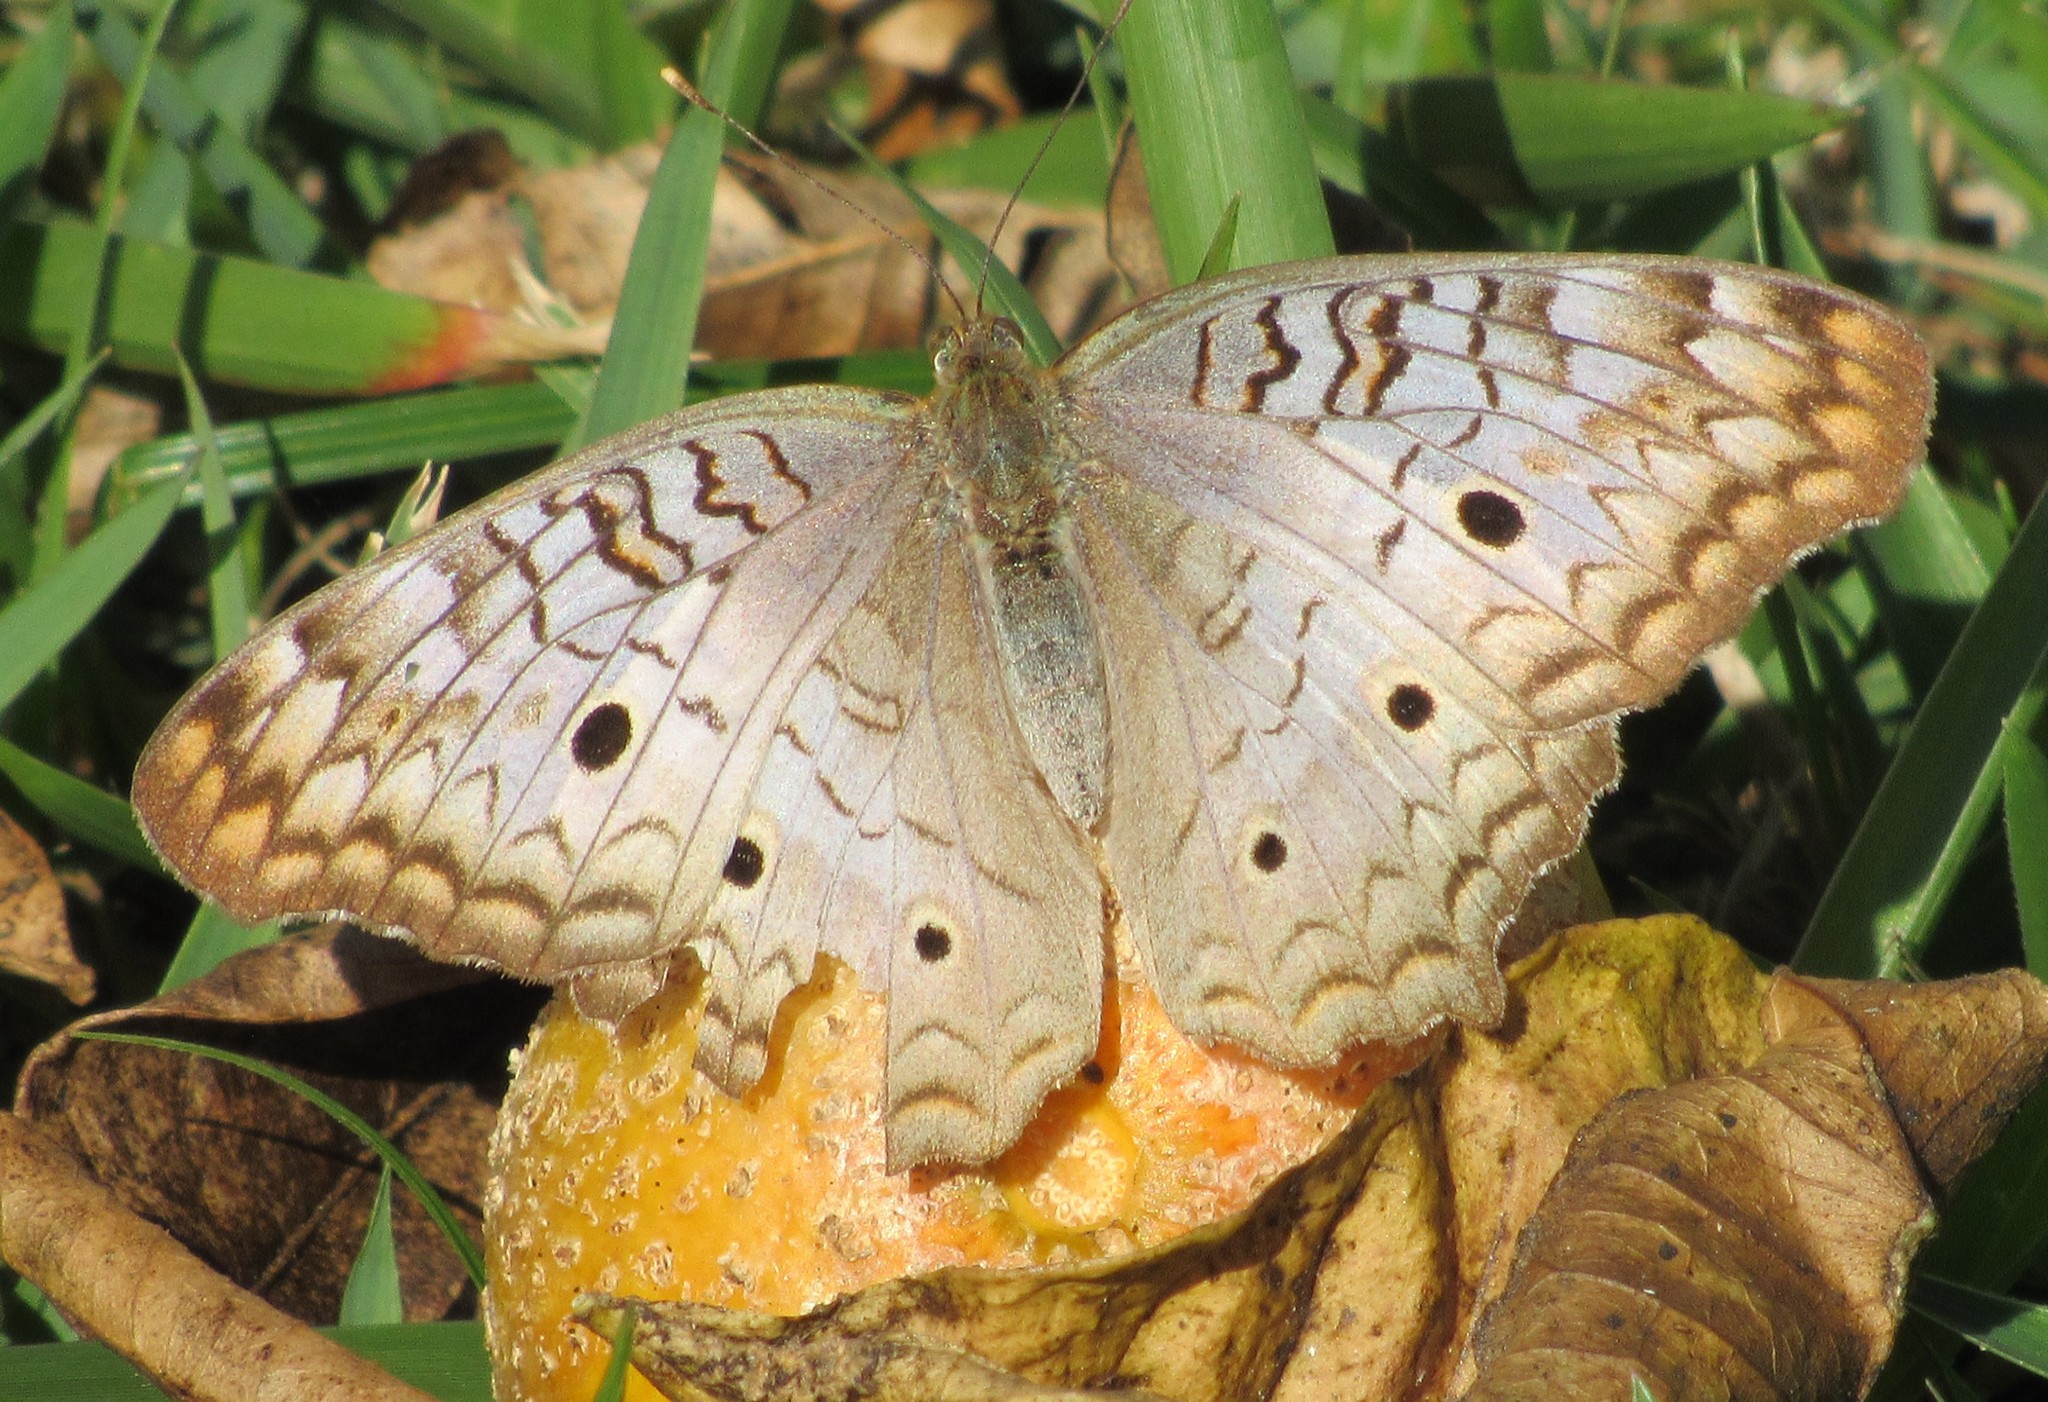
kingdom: Animalia
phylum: Arthropoda
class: Insecta
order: Lepidoptera
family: Nymphalidae
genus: Anartia
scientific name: Anartia jatrophae
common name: White peacock
